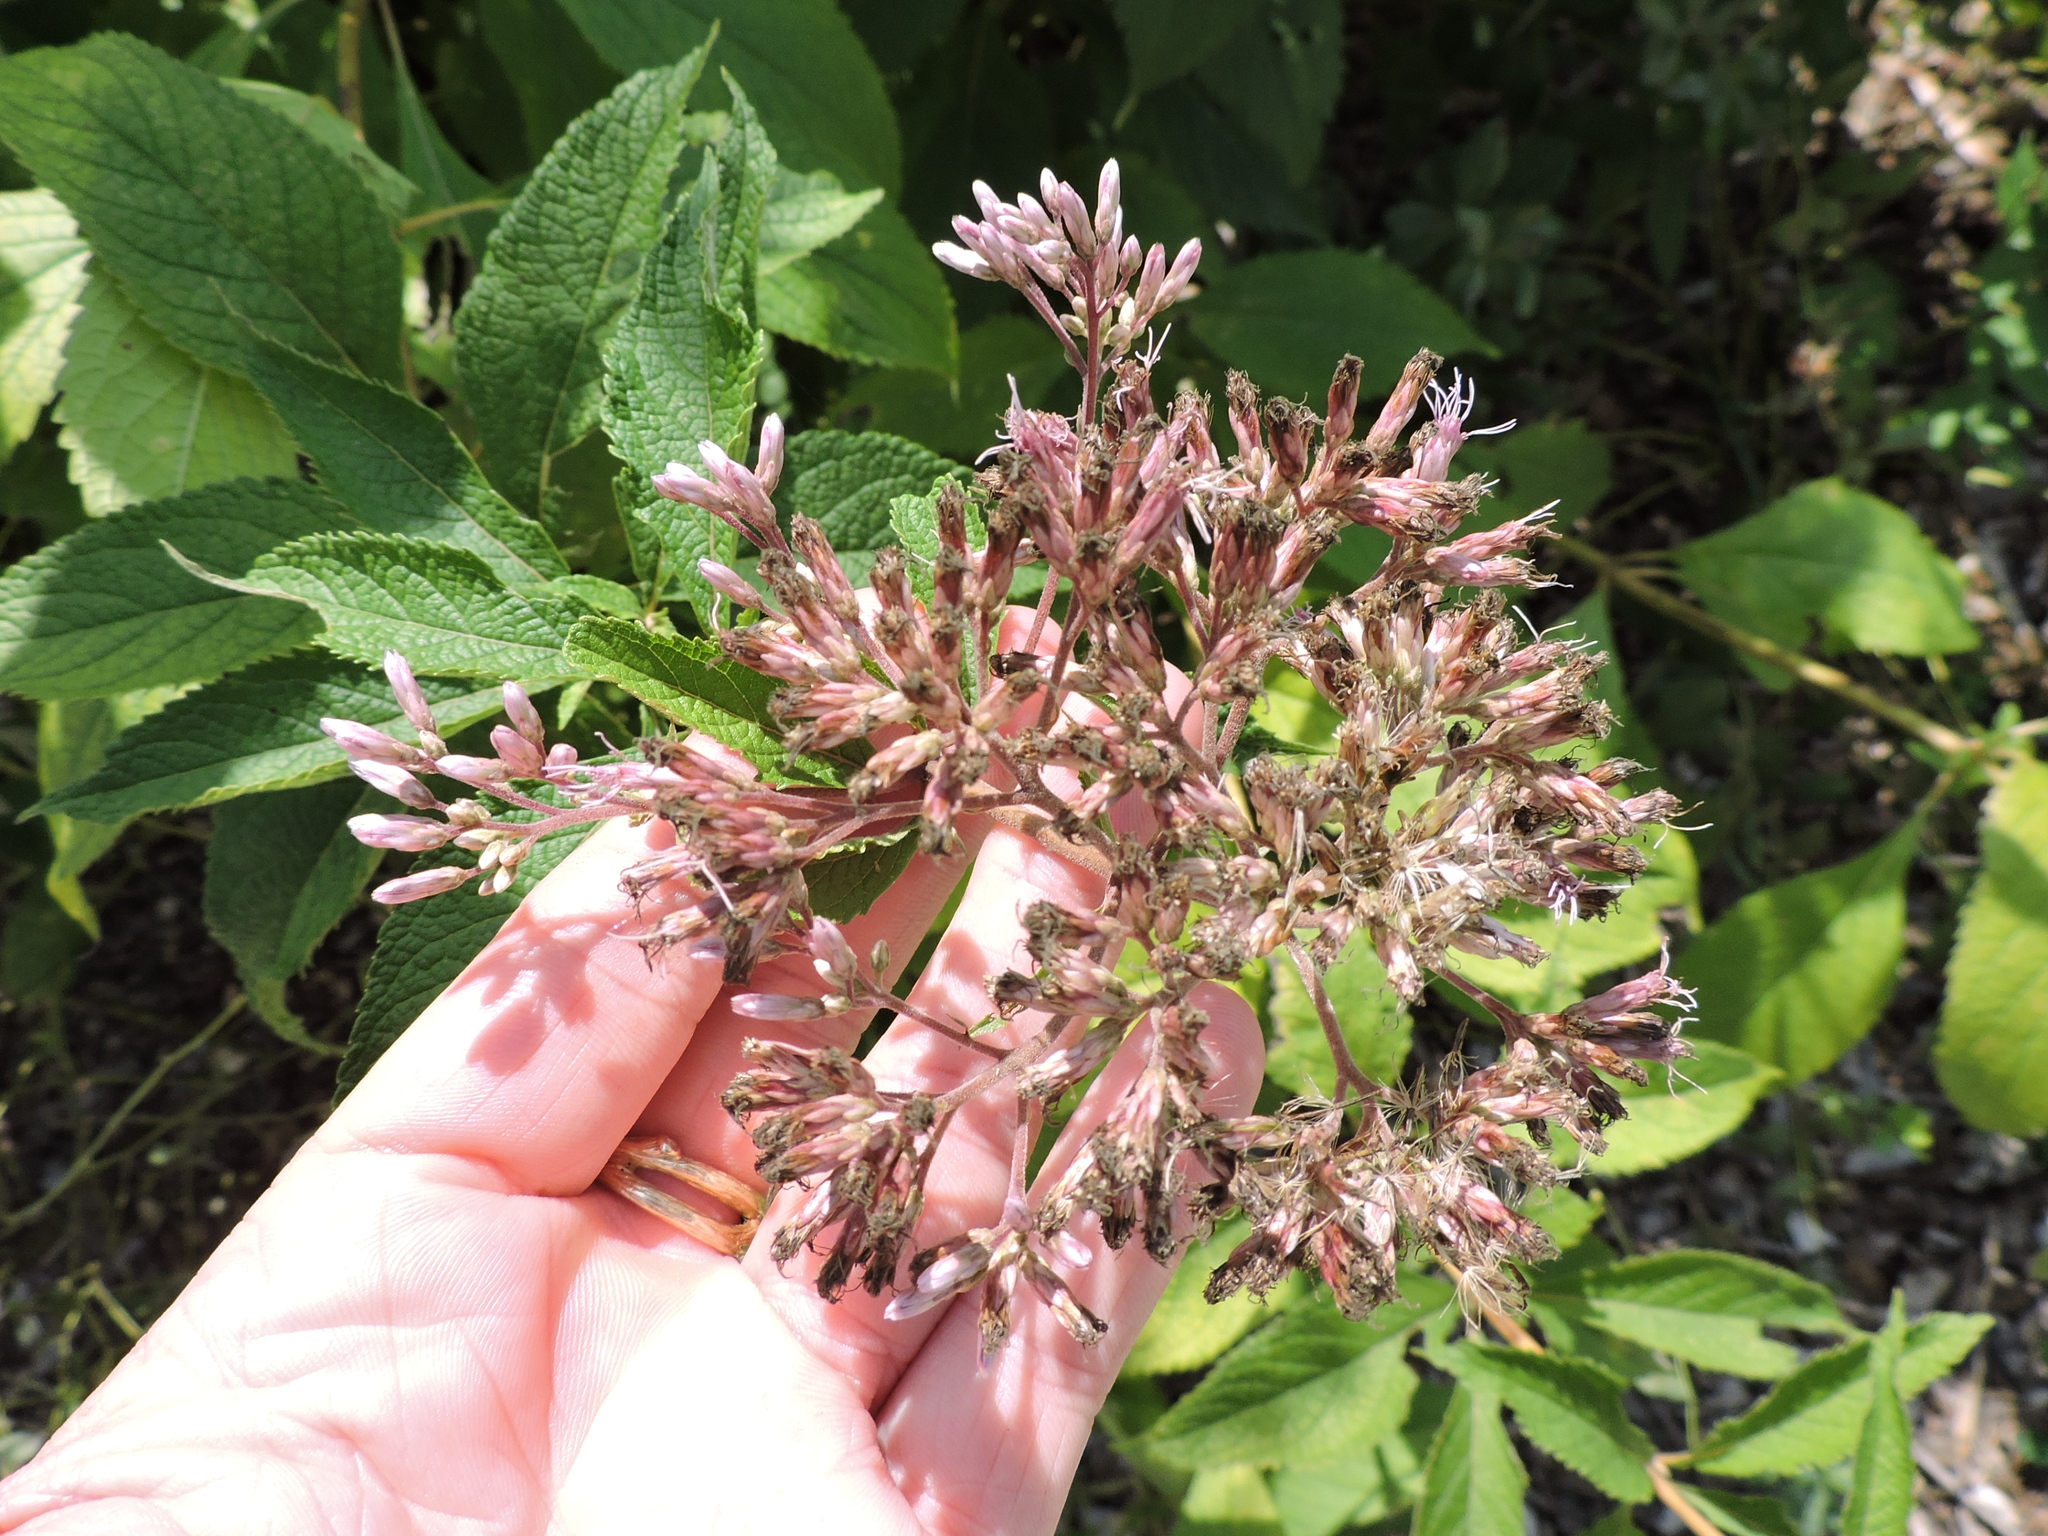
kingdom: Plantae
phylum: Tracheophyta
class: Magnoliopsida
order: Asterales
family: Asteraceae
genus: Eutrochium
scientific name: Eutrochium fistulosum
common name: Trumpetweed
